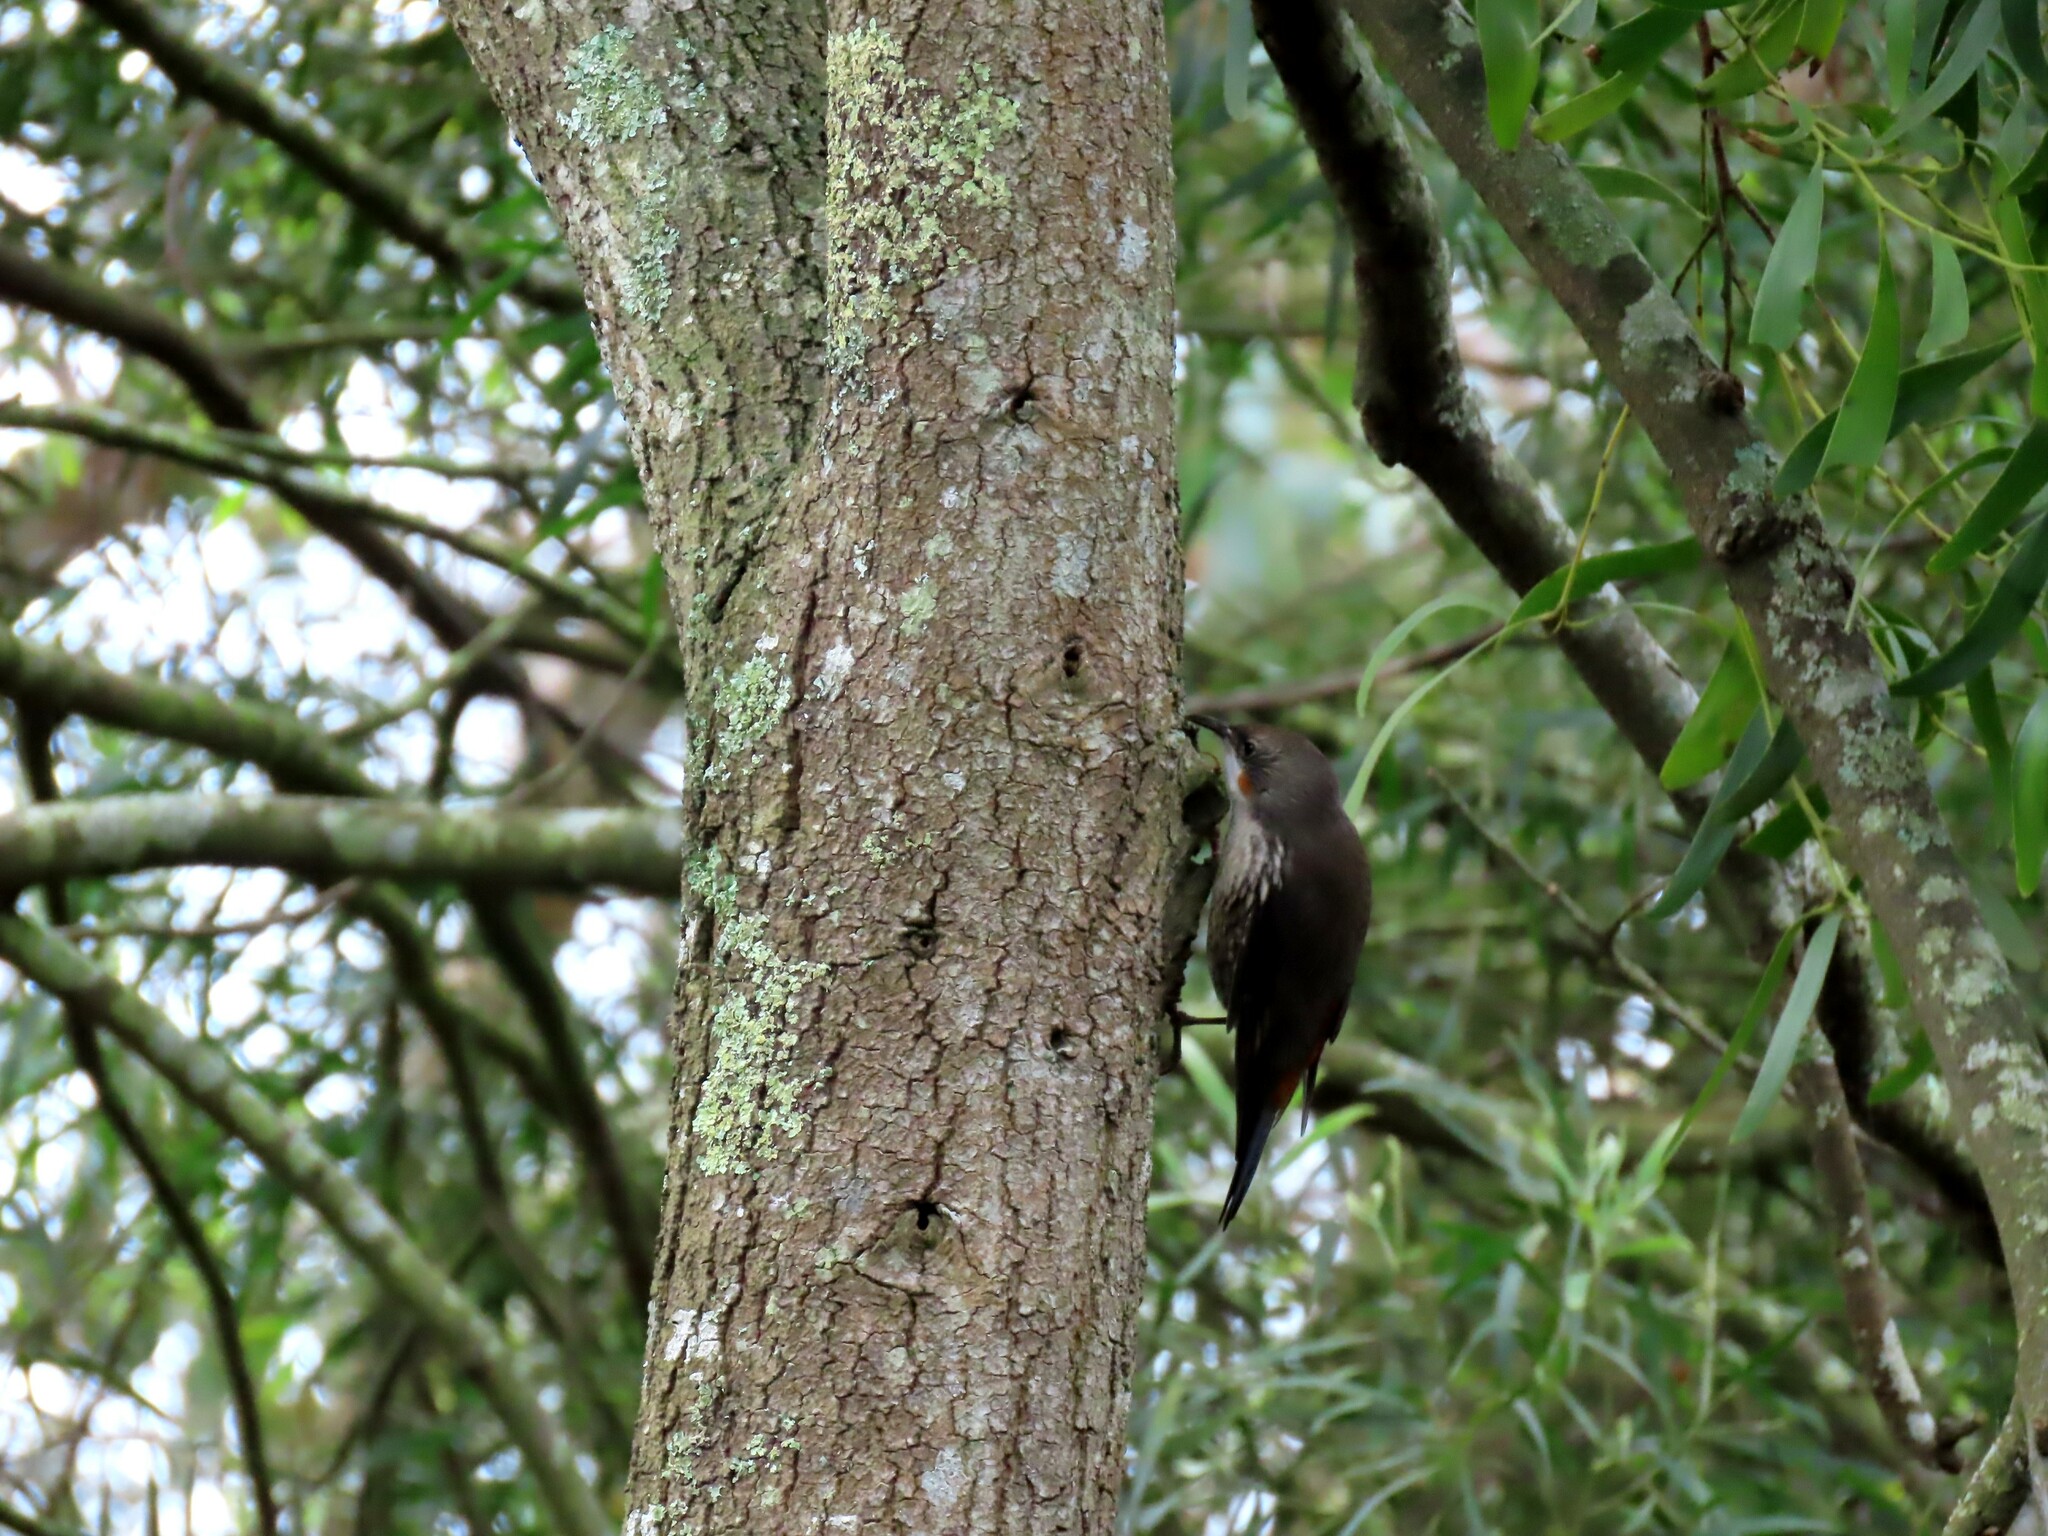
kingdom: Animalia
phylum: Chordata
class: Aves
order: Passeriformes
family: Climacteridae
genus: Cormobates
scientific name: Cormobates leucophaea
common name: White-throated treecreeper
